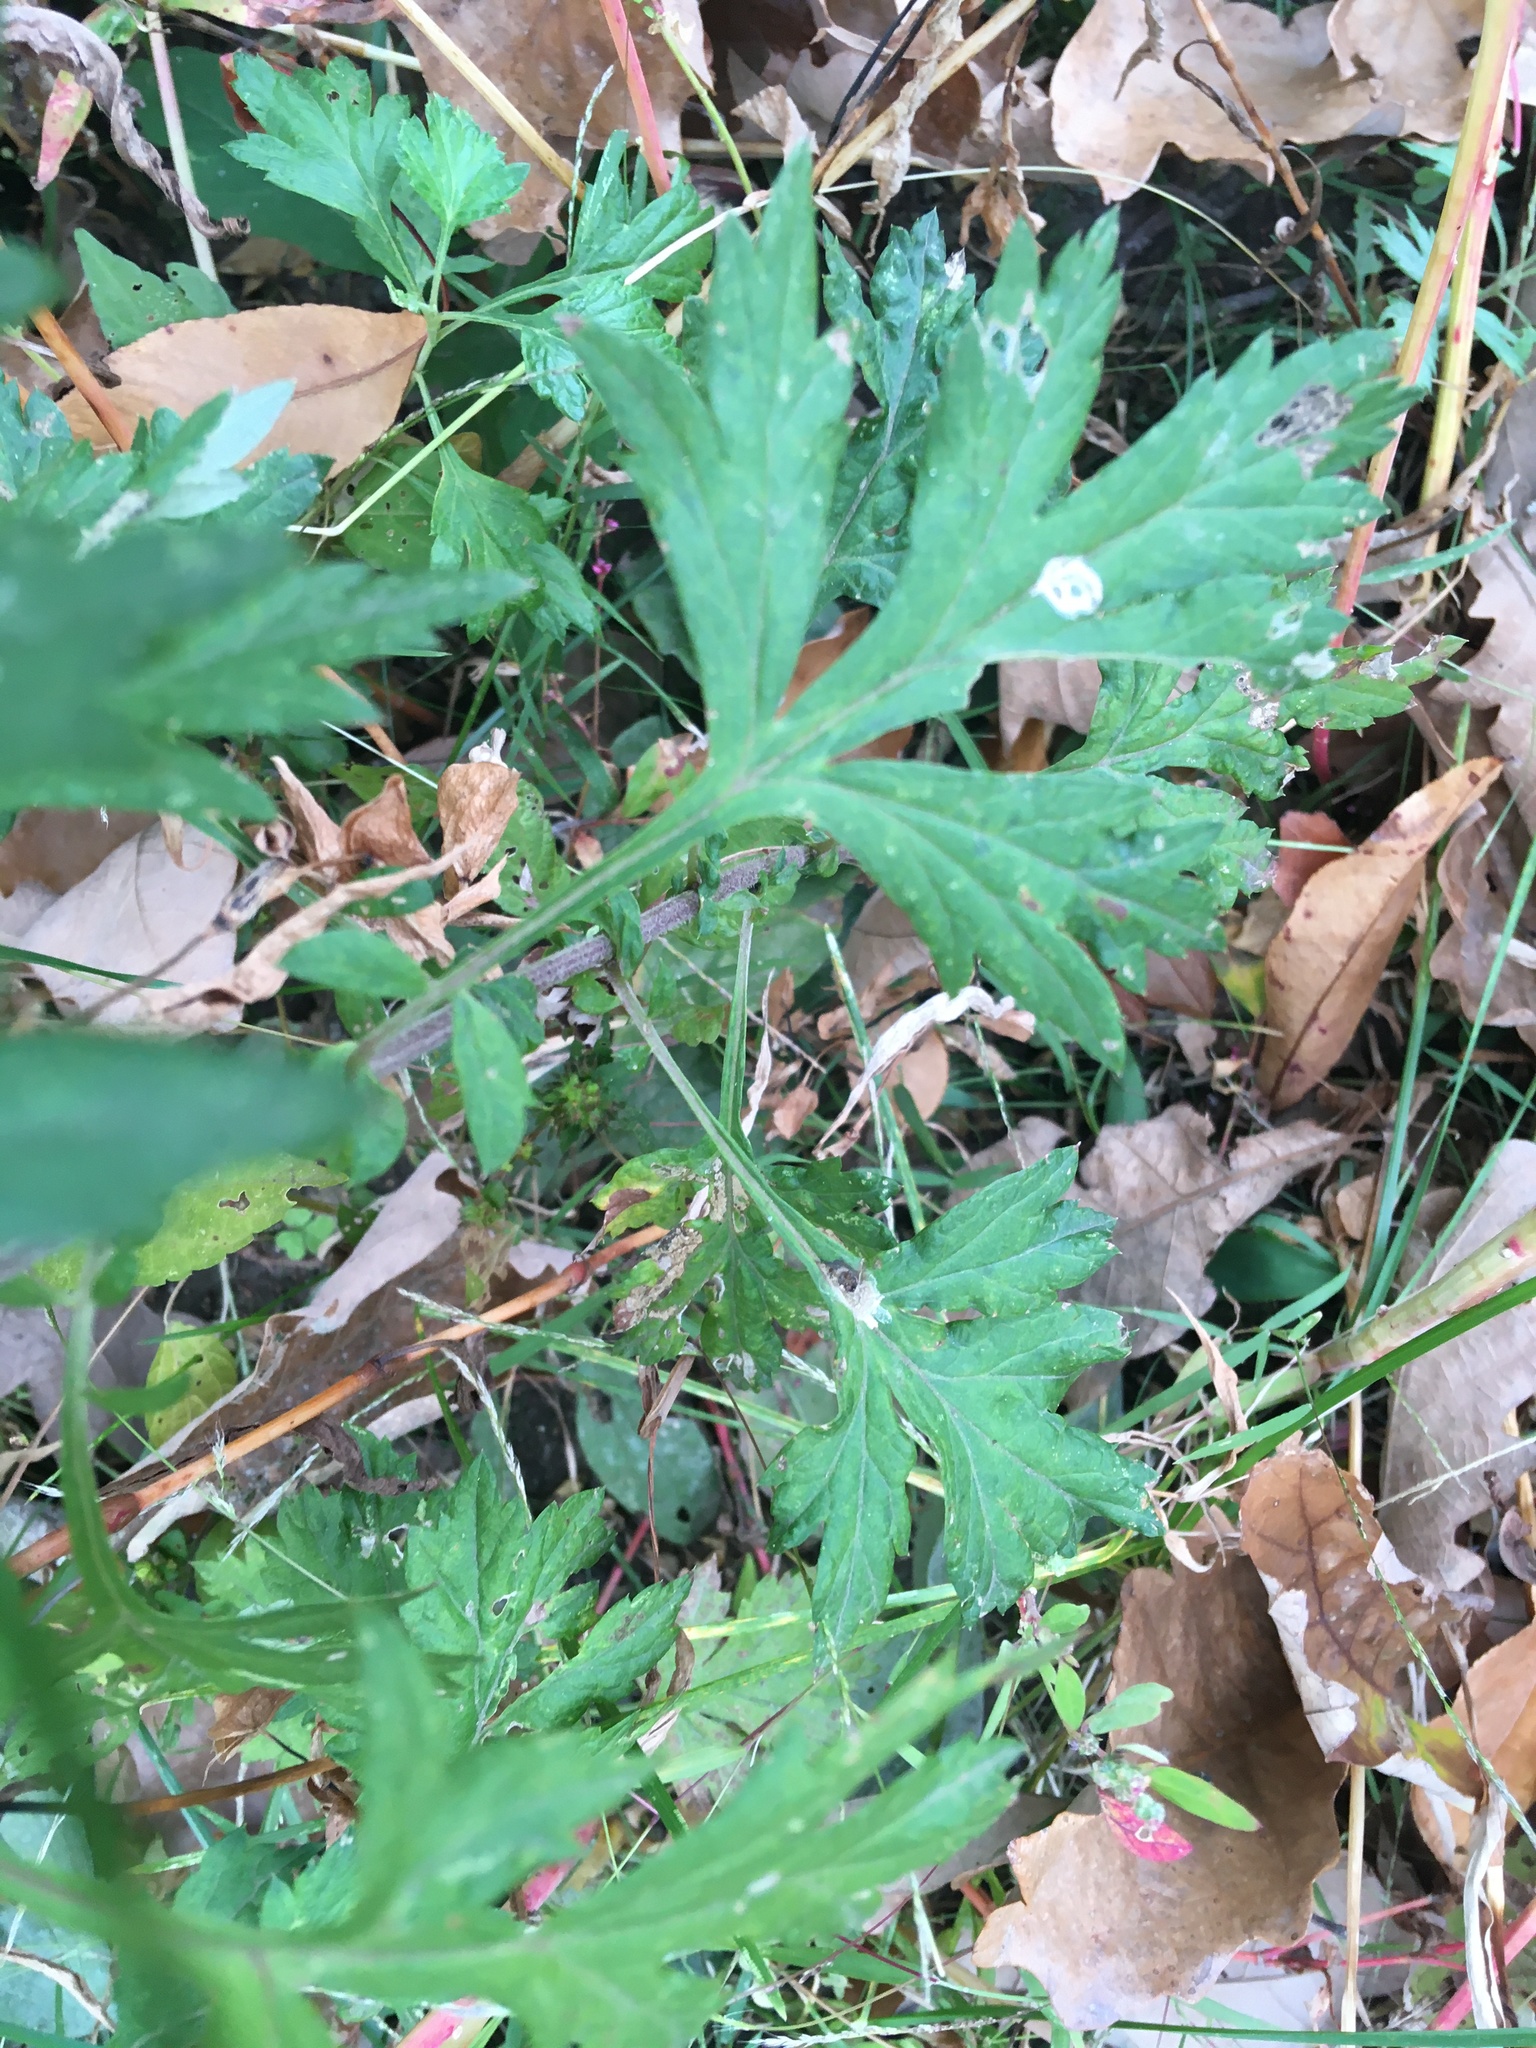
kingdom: Plantae
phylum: Tracheophyta
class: Magnoliopsida
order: Asterales
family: Asteraceae
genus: Artemisia
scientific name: Artemisia vulgaris
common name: Mugwort
